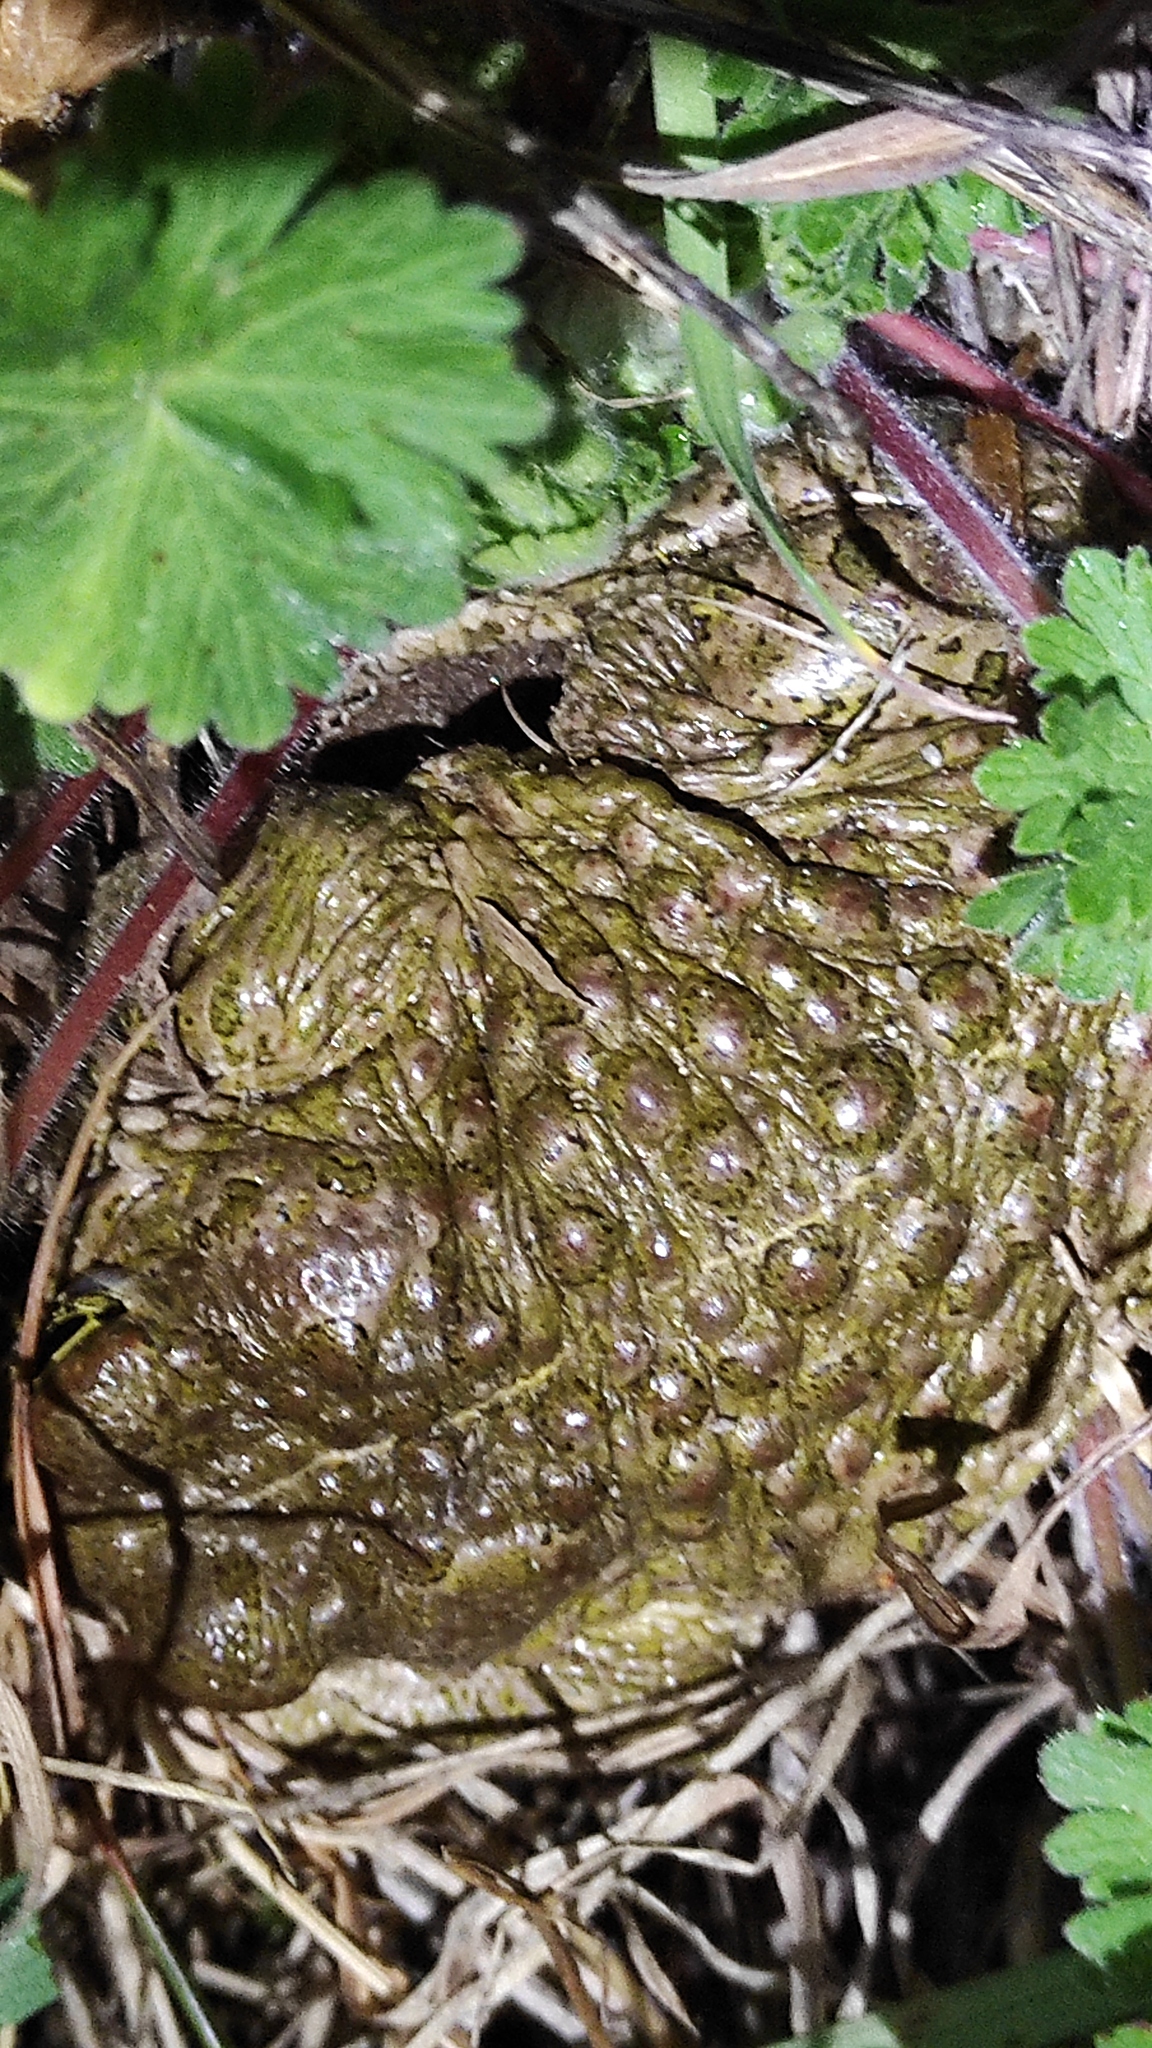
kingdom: Animalia
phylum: Chordata
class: Amphibia
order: Anura
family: Bufonidae
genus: Epidalea
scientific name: Epidalea calamita
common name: Natterjack toad
